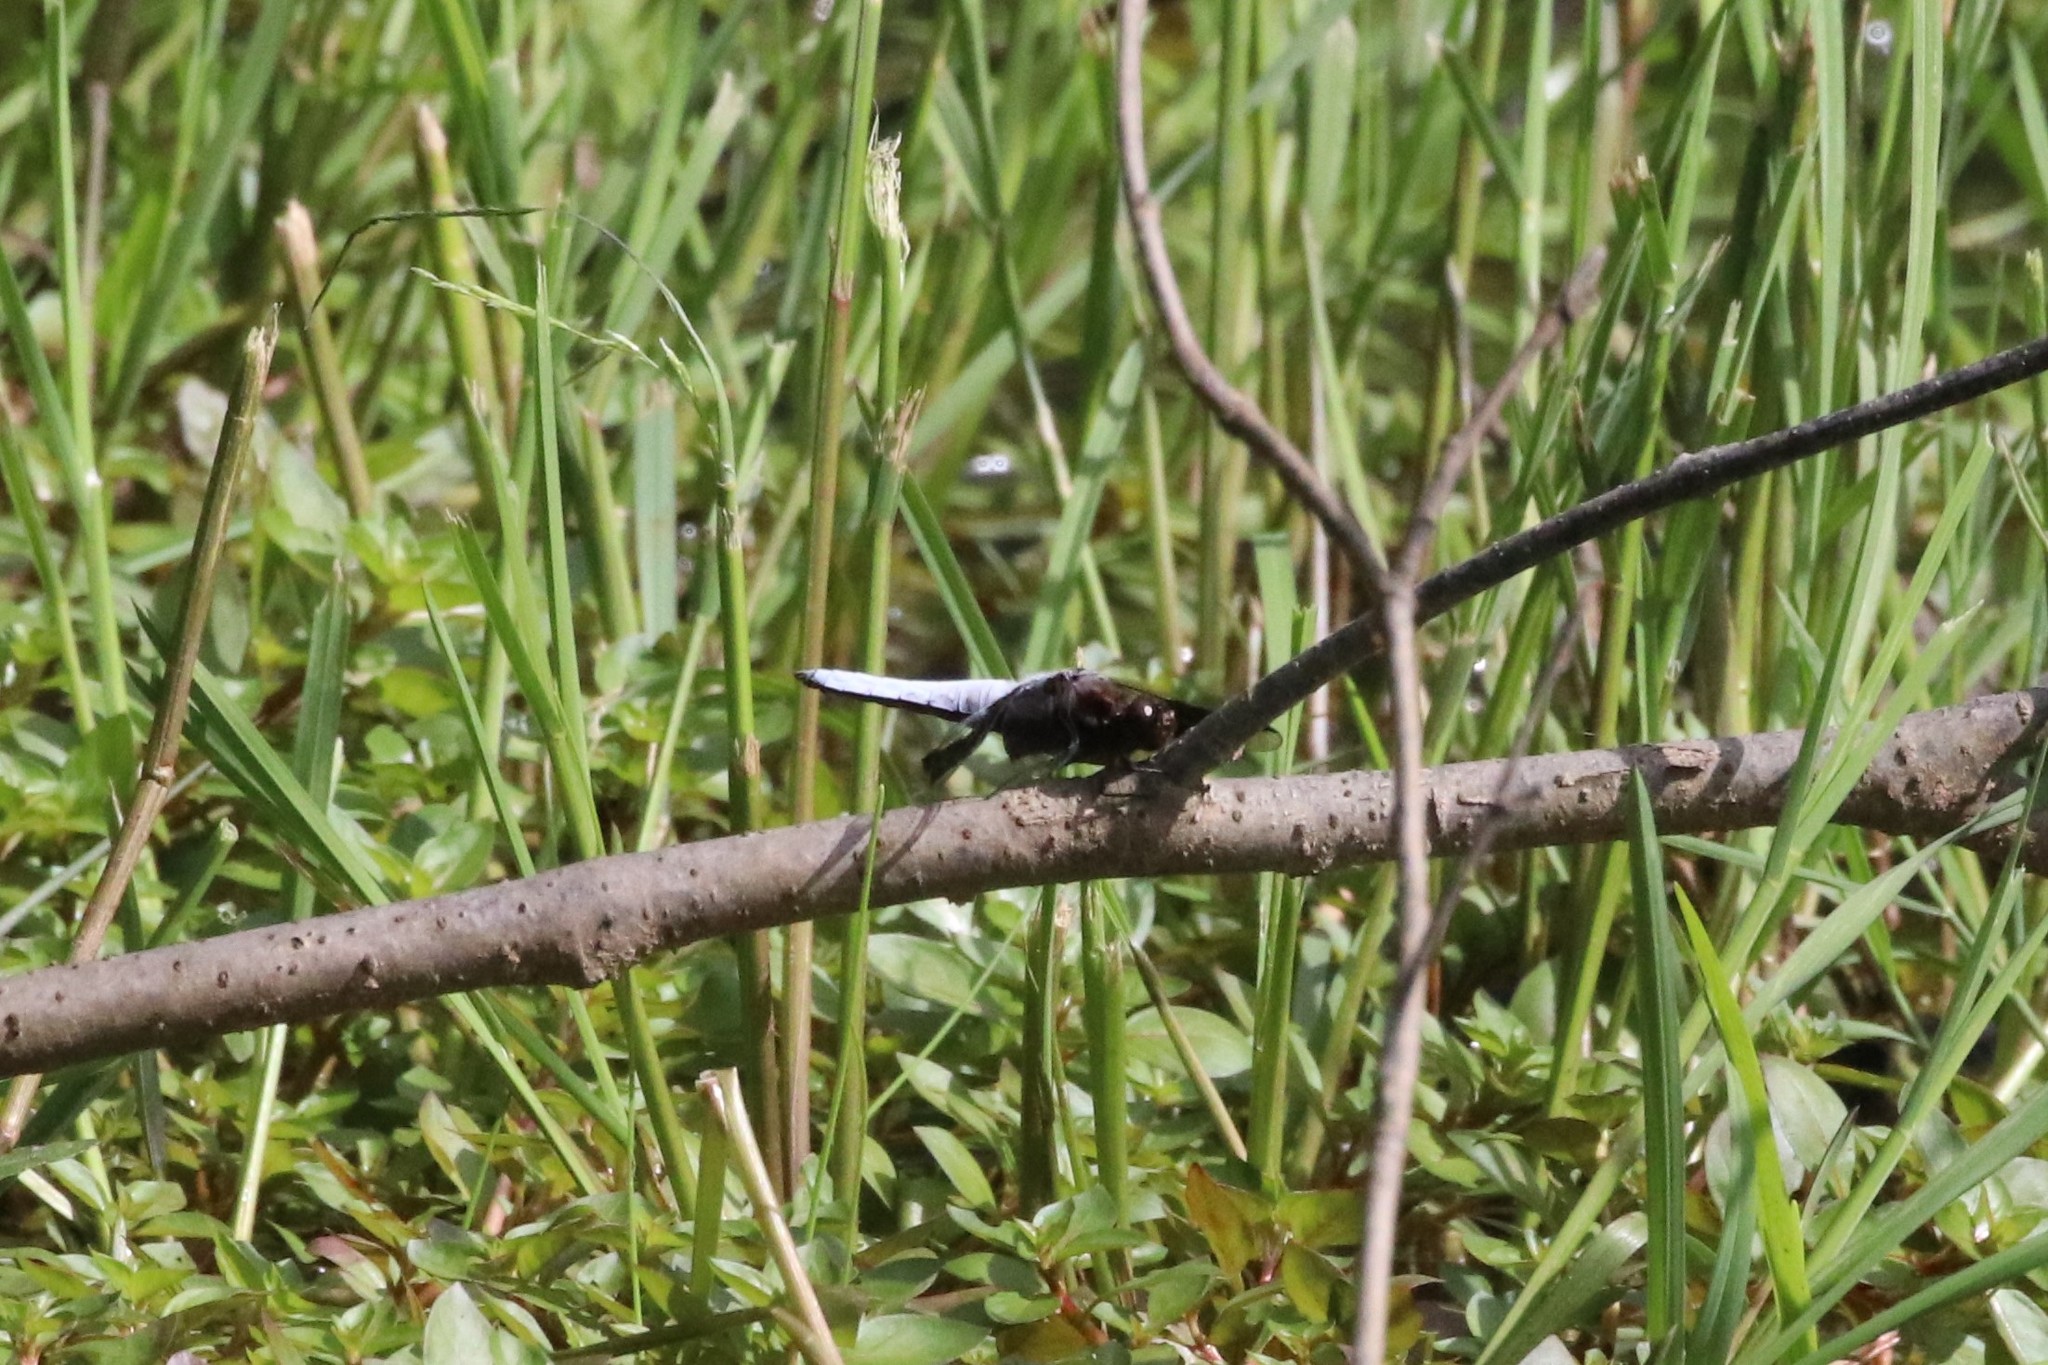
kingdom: Animalia
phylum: Arthropoda
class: Insecta
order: Odonata
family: Libellulidae
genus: Plathemis
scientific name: Plathemis lydia
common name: Common whitetail
